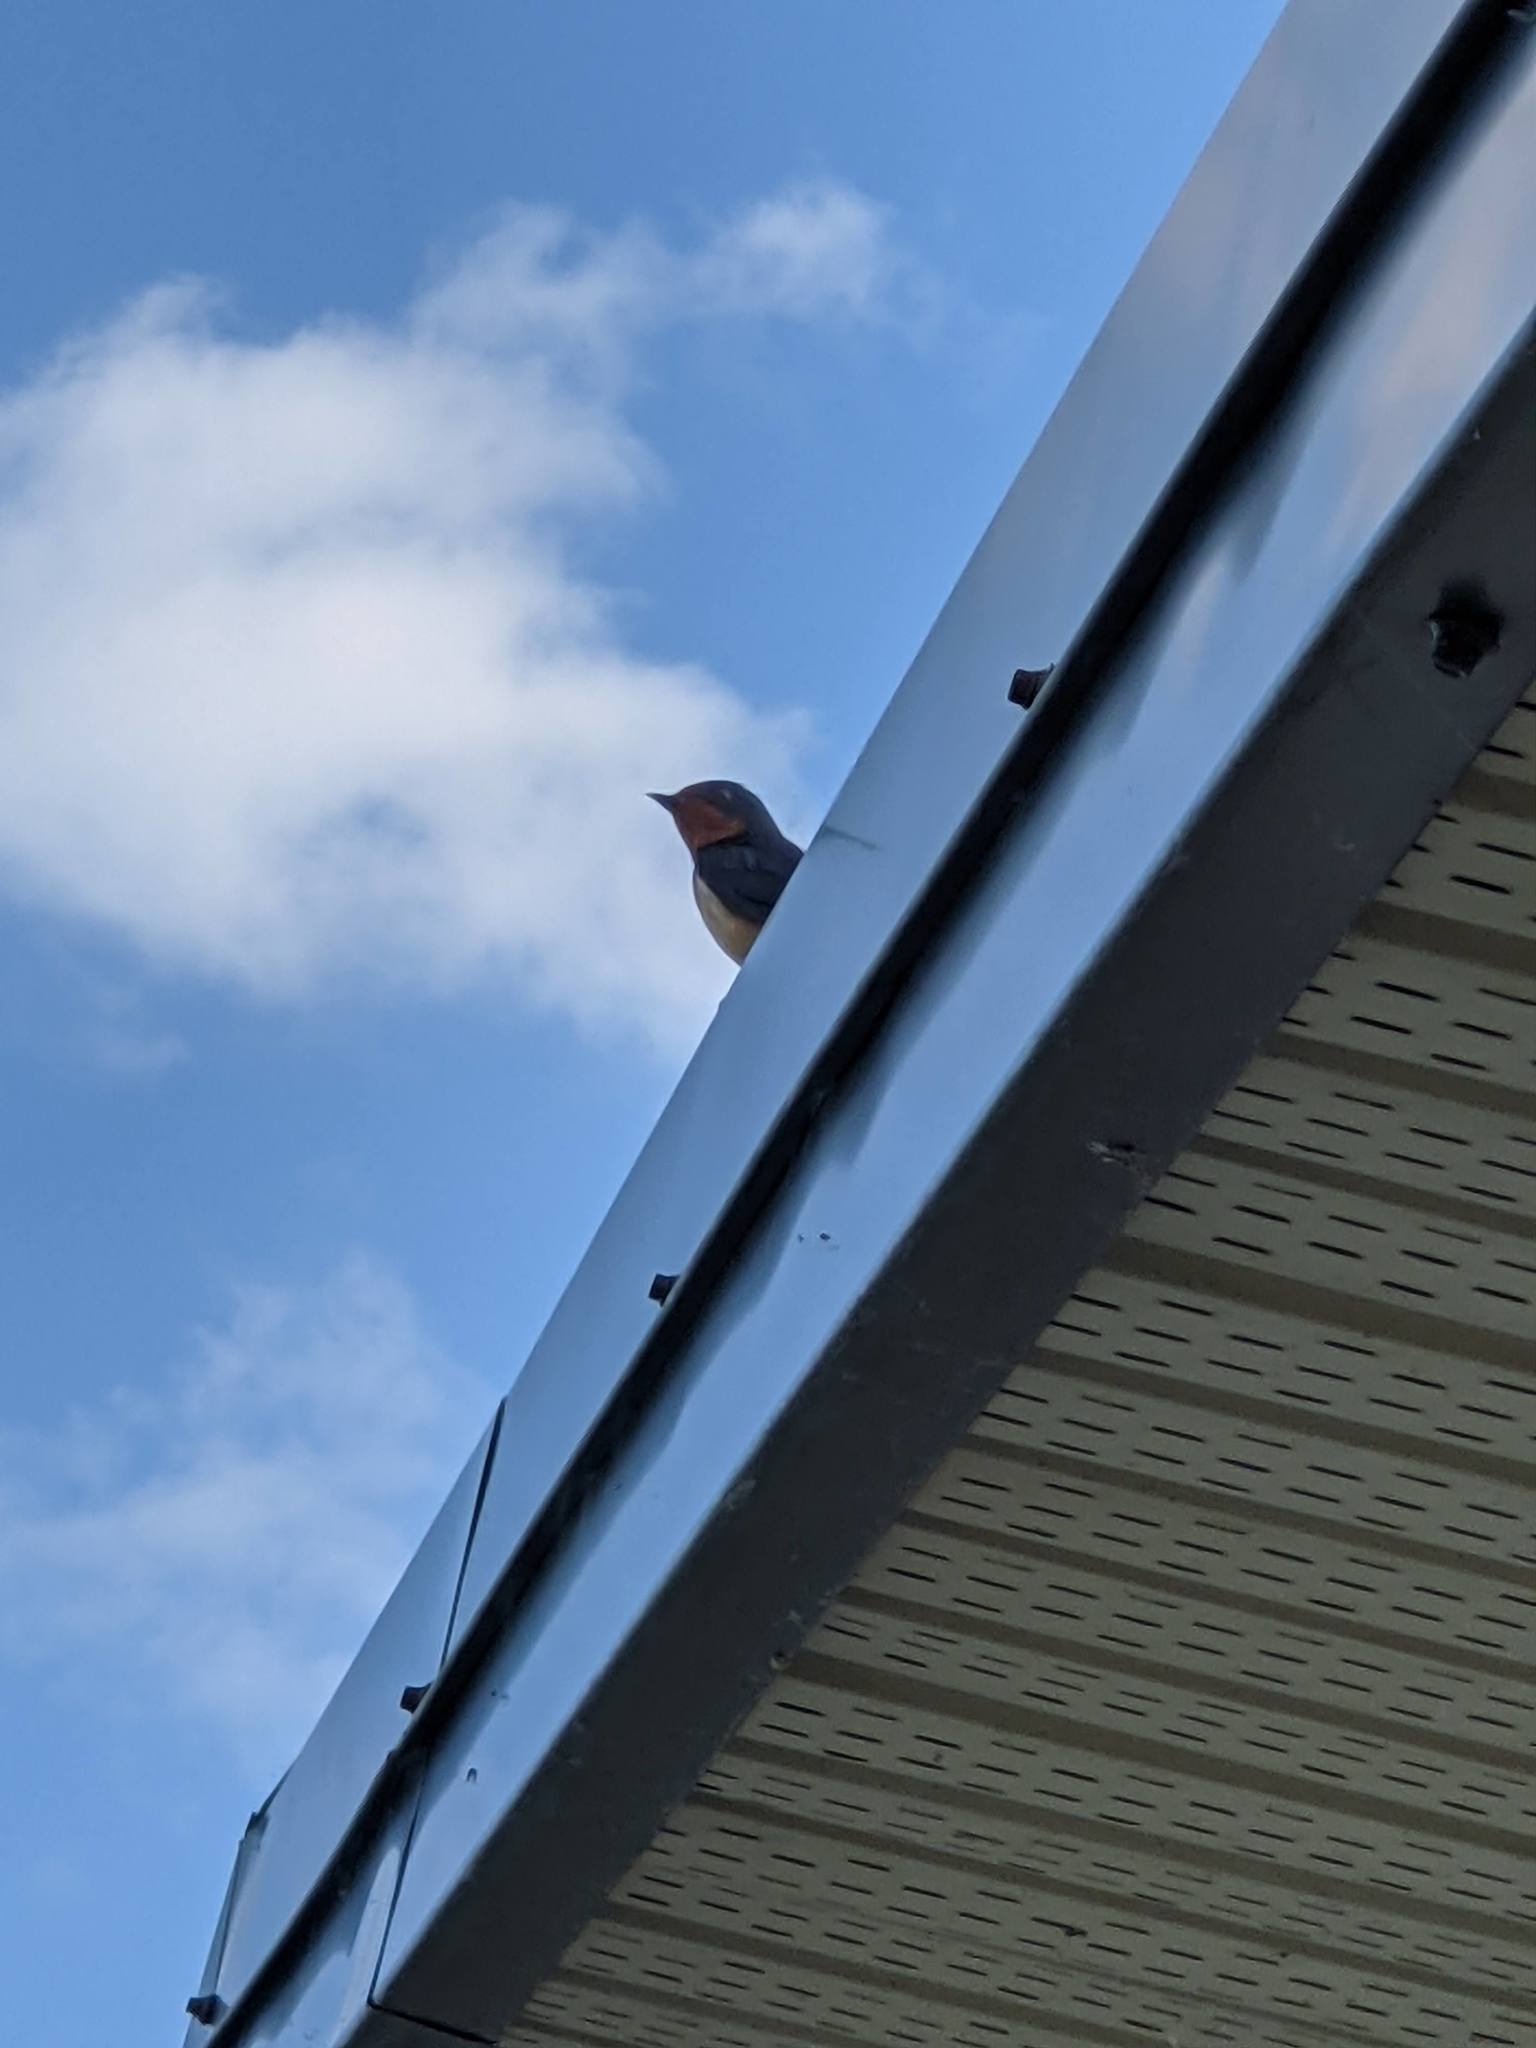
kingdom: Animalia
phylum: Chordata
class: Aves
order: Passeriformes
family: Hirundinidae
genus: Hirundo
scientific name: Hirundo rustica
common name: Barn swallow
